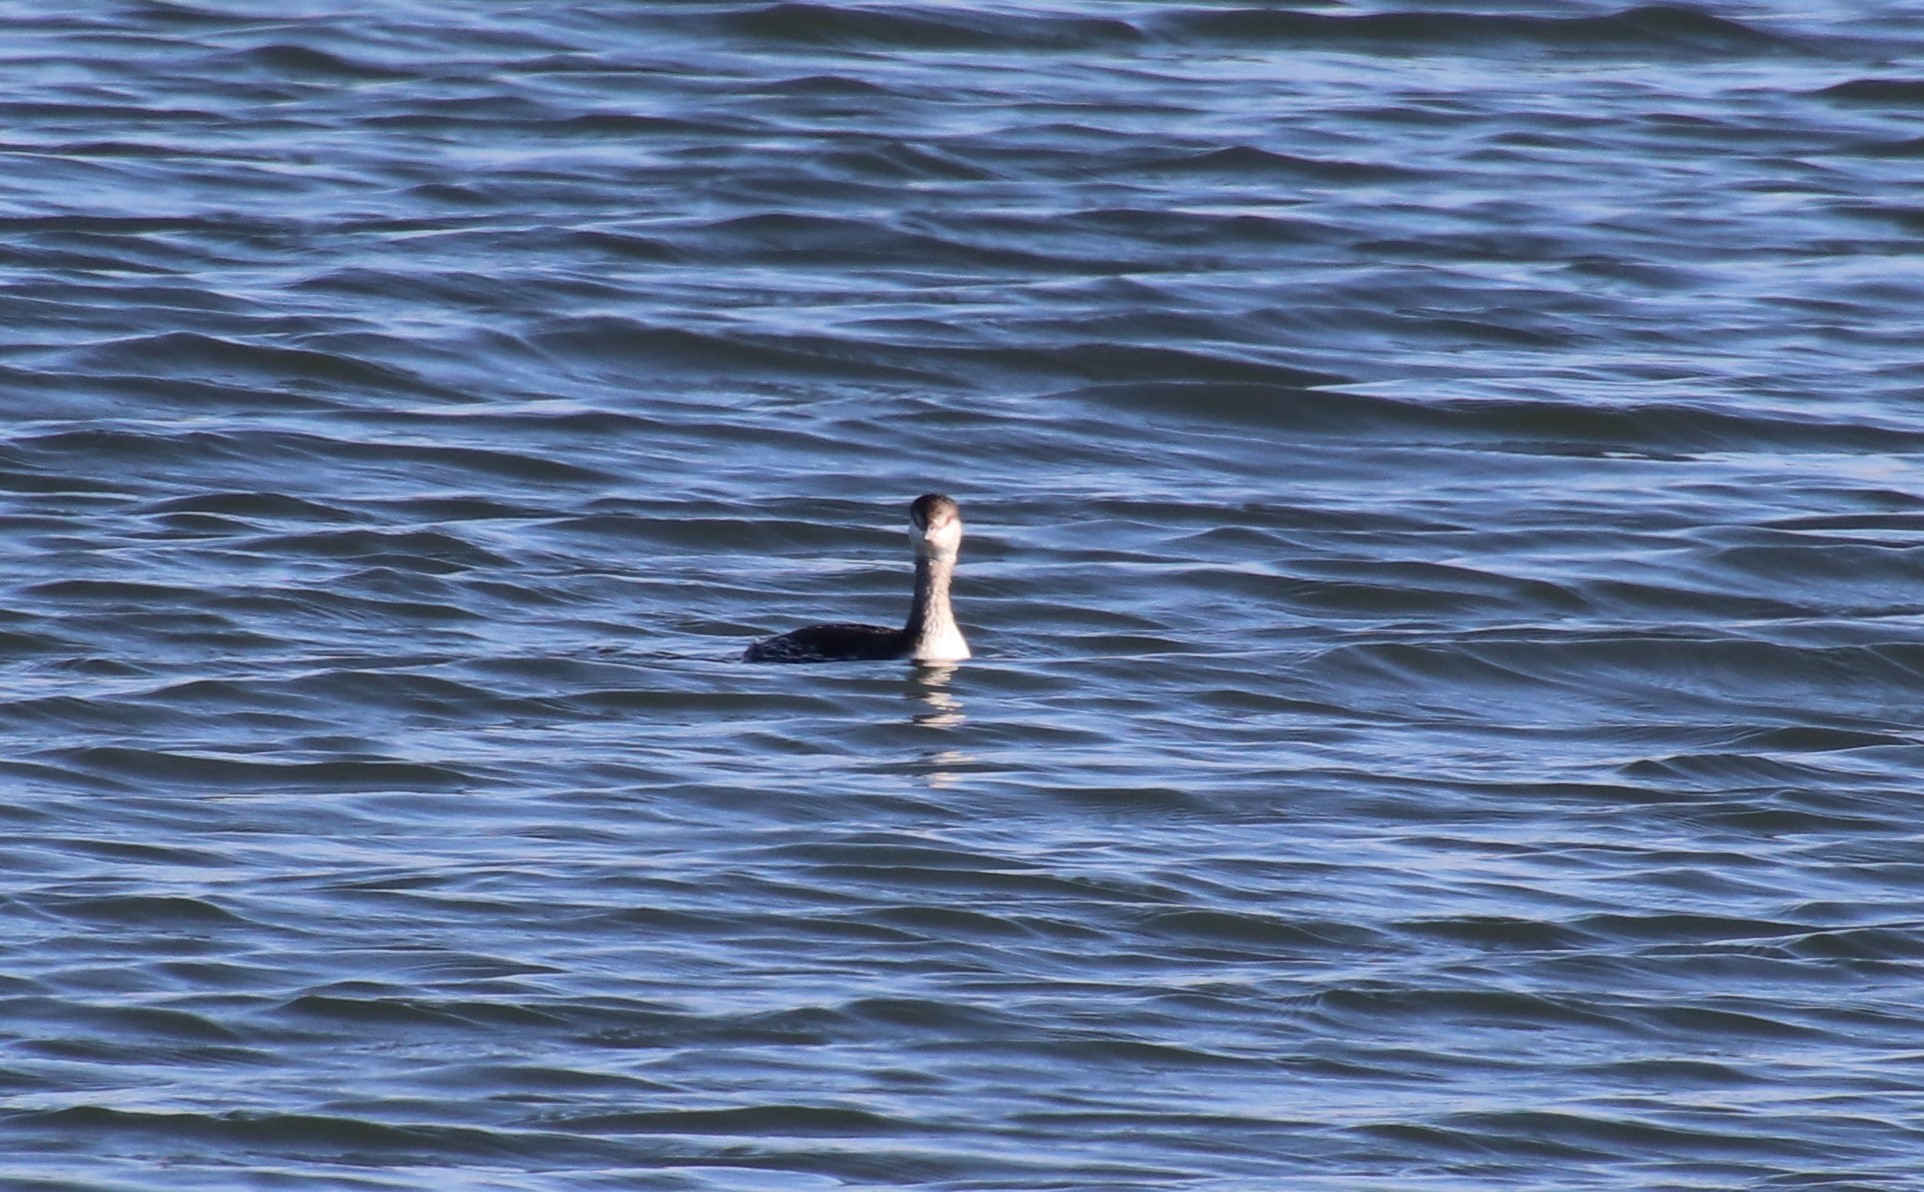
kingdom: Animalia
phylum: Chordata
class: Aves
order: Podicipediformes
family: Podicipedidae
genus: Podiceps
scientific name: Podiceps auritus
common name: Horned grebe
